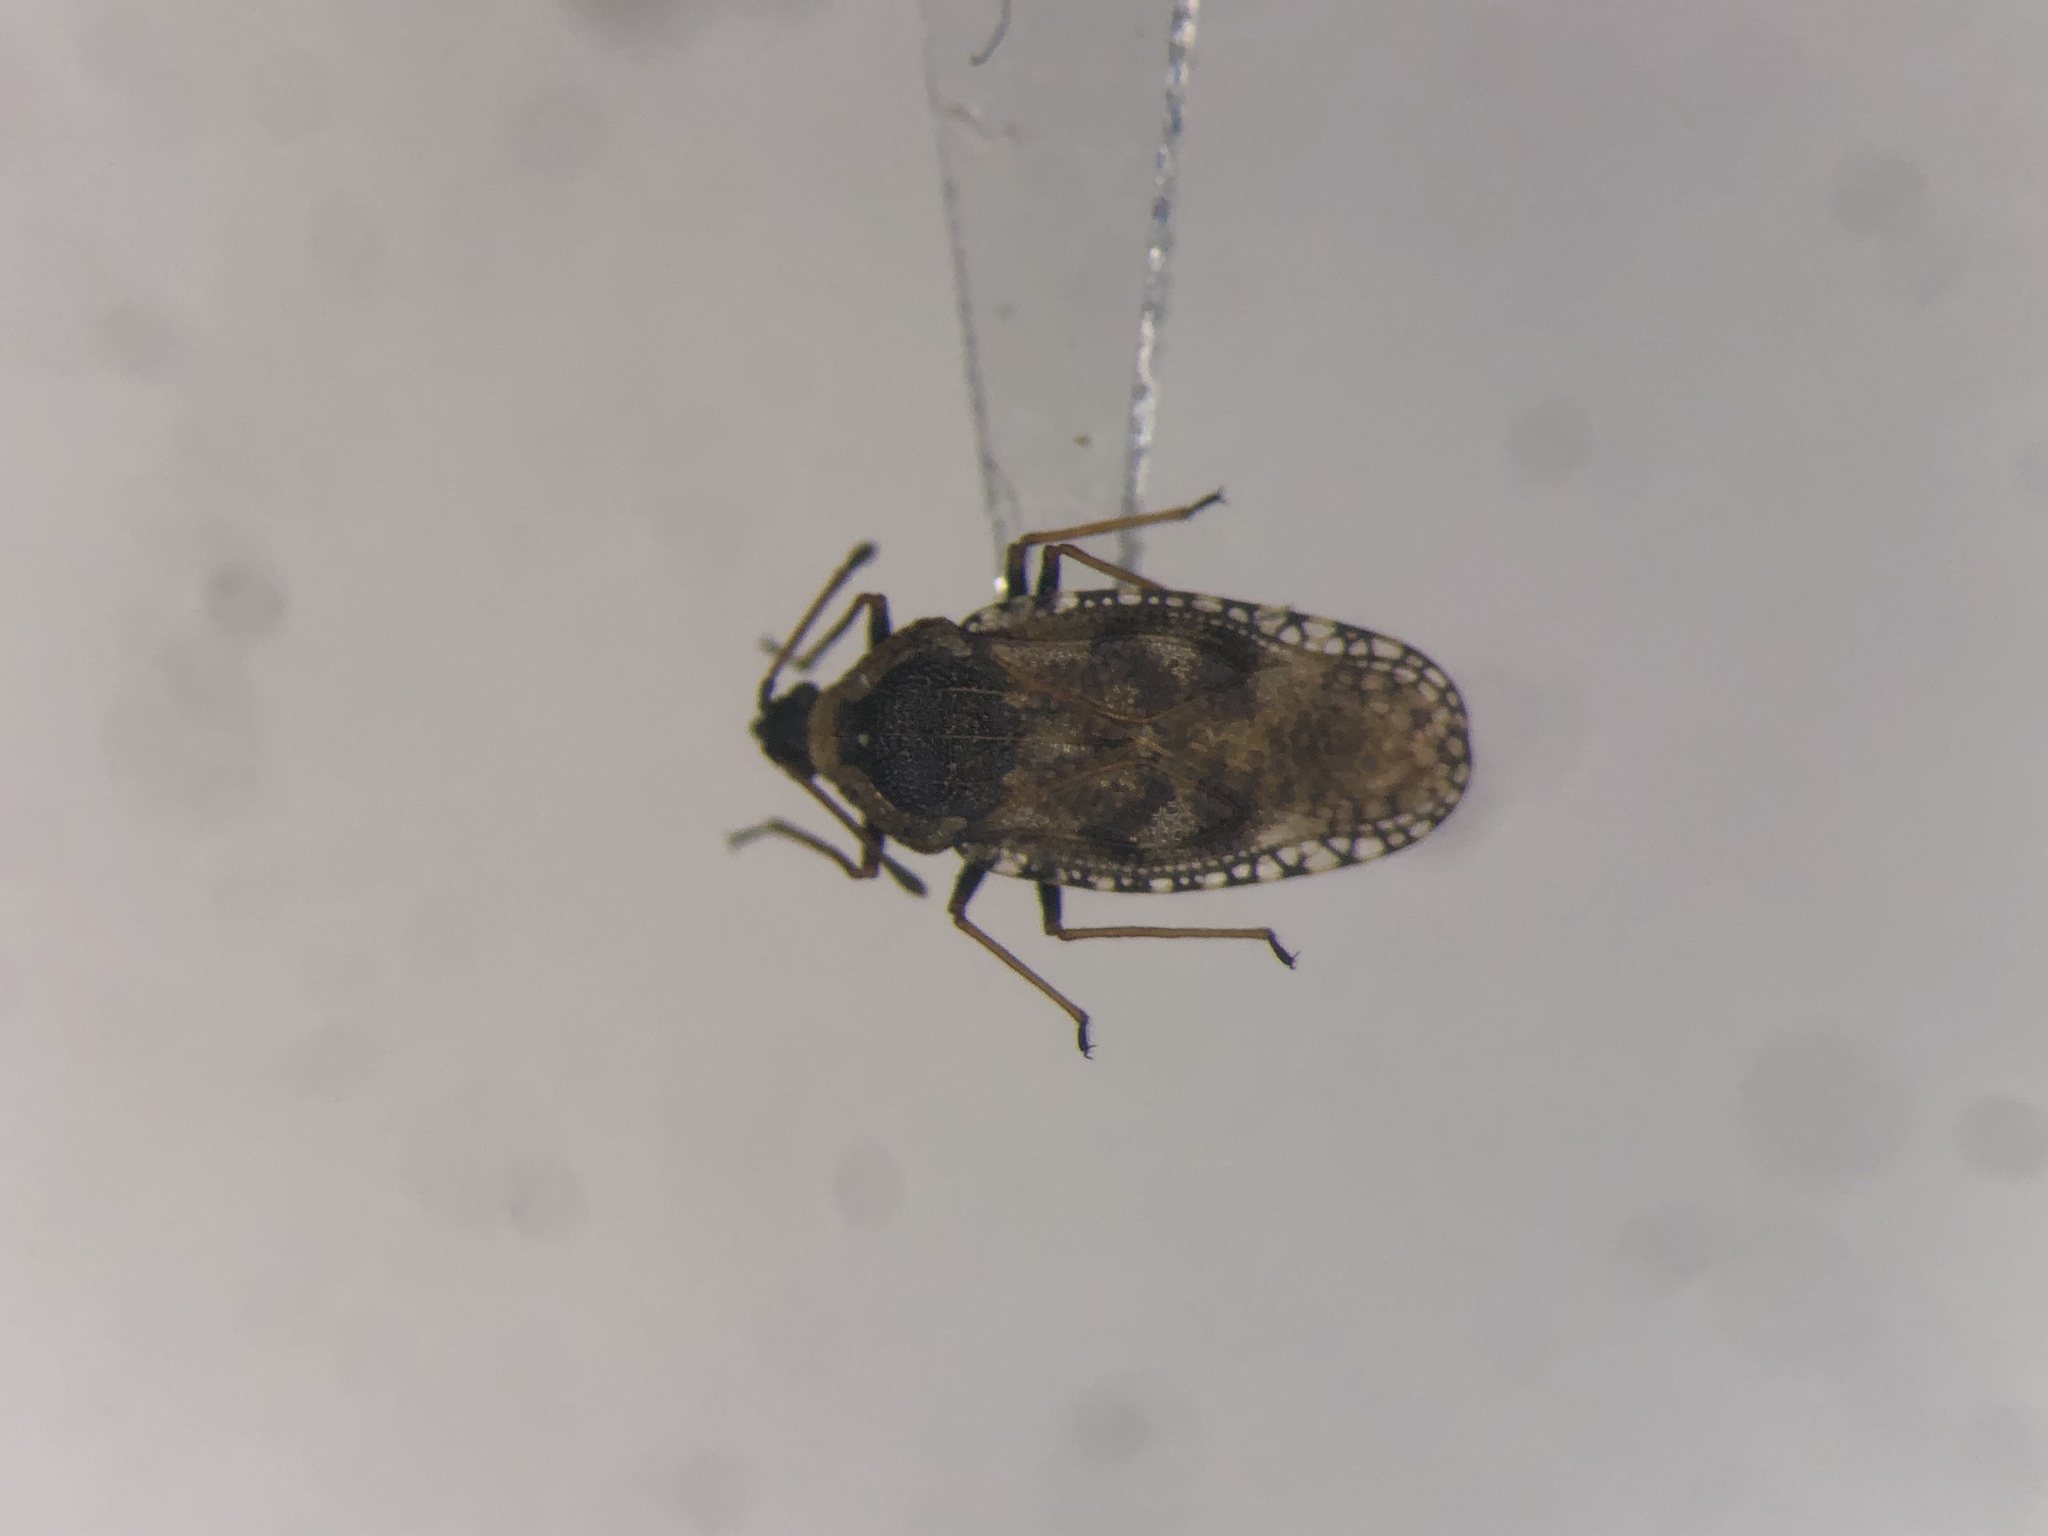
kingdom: Animalia
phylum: Arthropoda
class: Insecta
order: Hemiptera
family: Tingidae
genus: Dictyla
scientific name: Dictyla echii
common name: Lace bug
